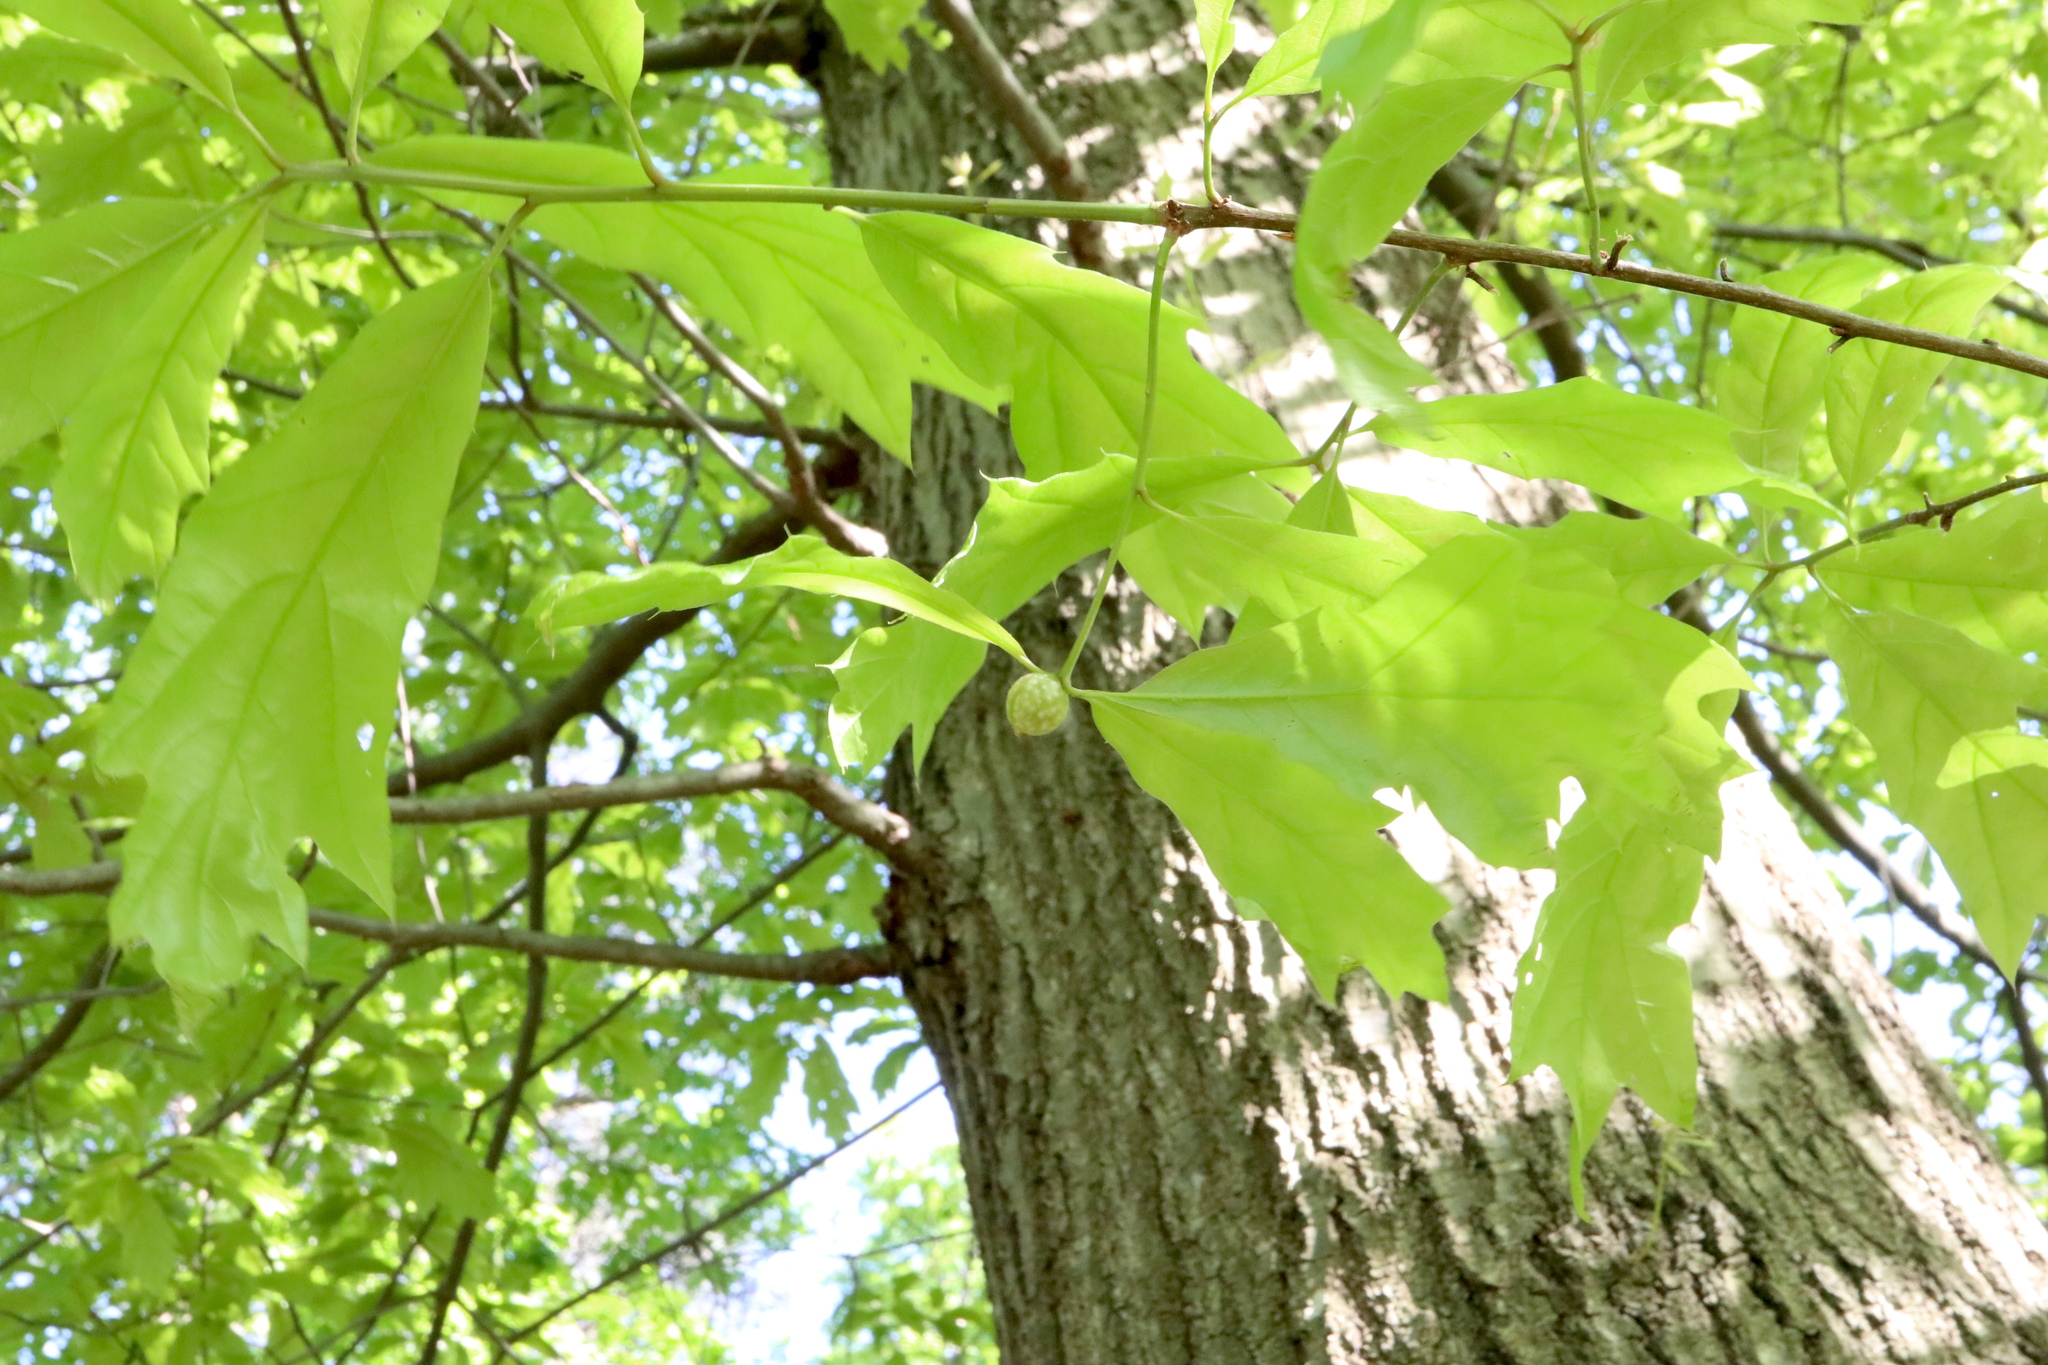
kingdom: Animalia
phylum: Arthropoda
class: Insecta
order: Hymenoptera
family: Cynipidae
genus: Dryocosmus
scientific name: Dryocosmus quercuspalustris
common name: Succulent oak gall wasp
